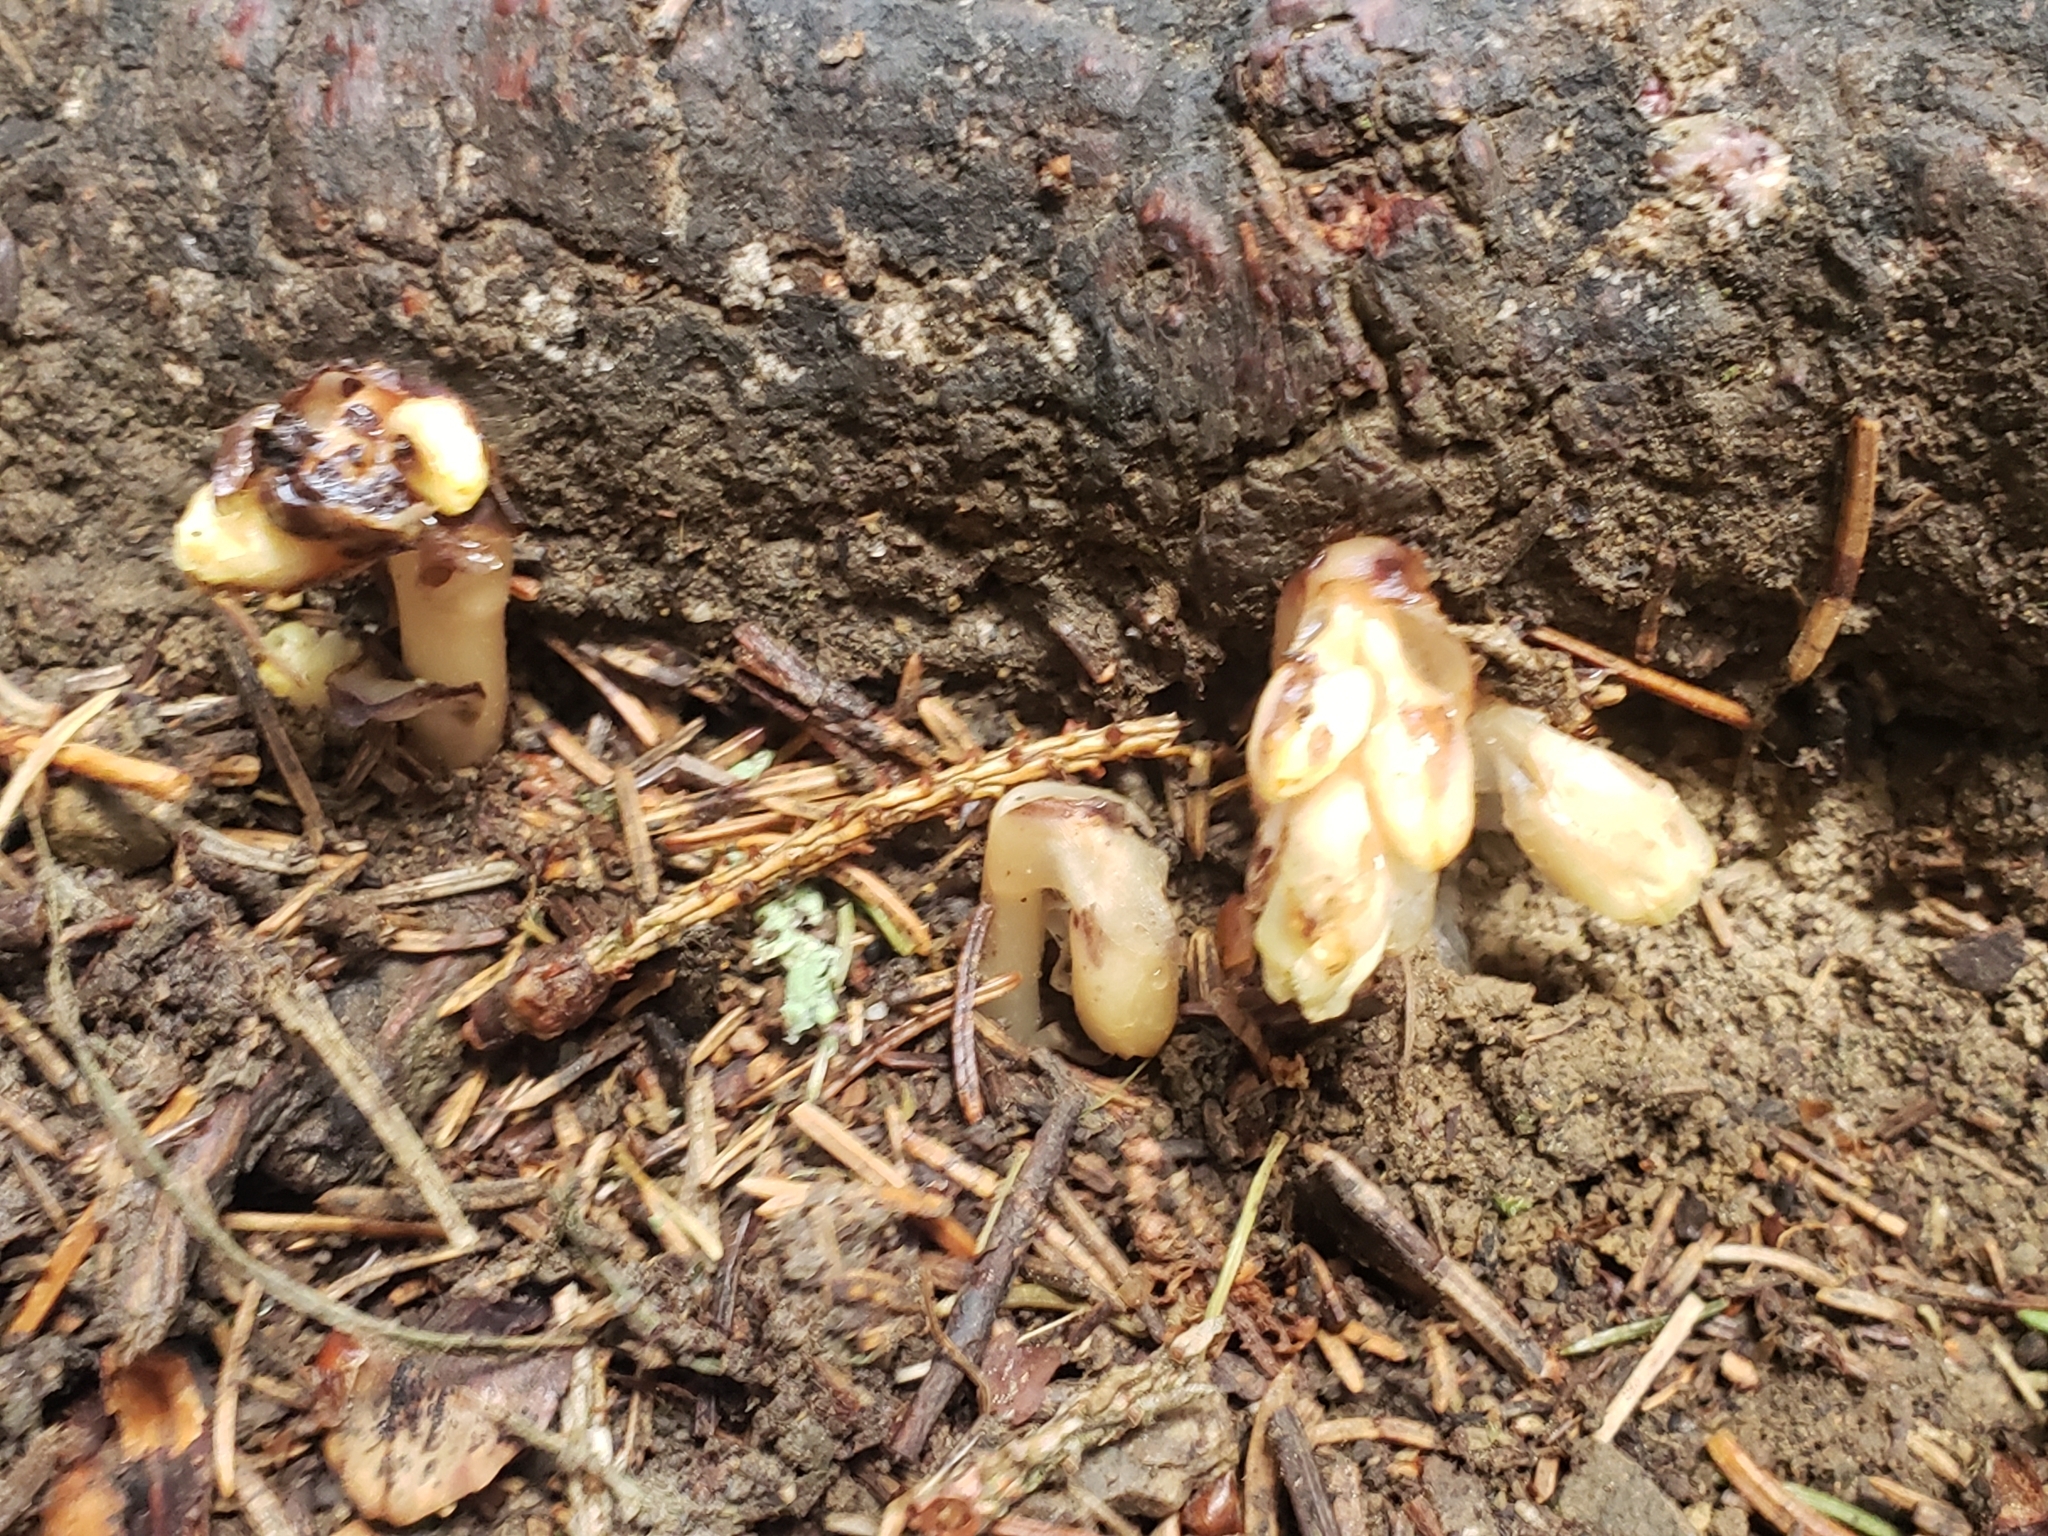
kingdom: Plantae
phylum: Tracheophyta
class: Magnoliopsida
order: Ericales
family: Ericaceae
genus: Hypopitys
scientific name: Hypopitys monotropa
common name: Yellow bird's-nest
